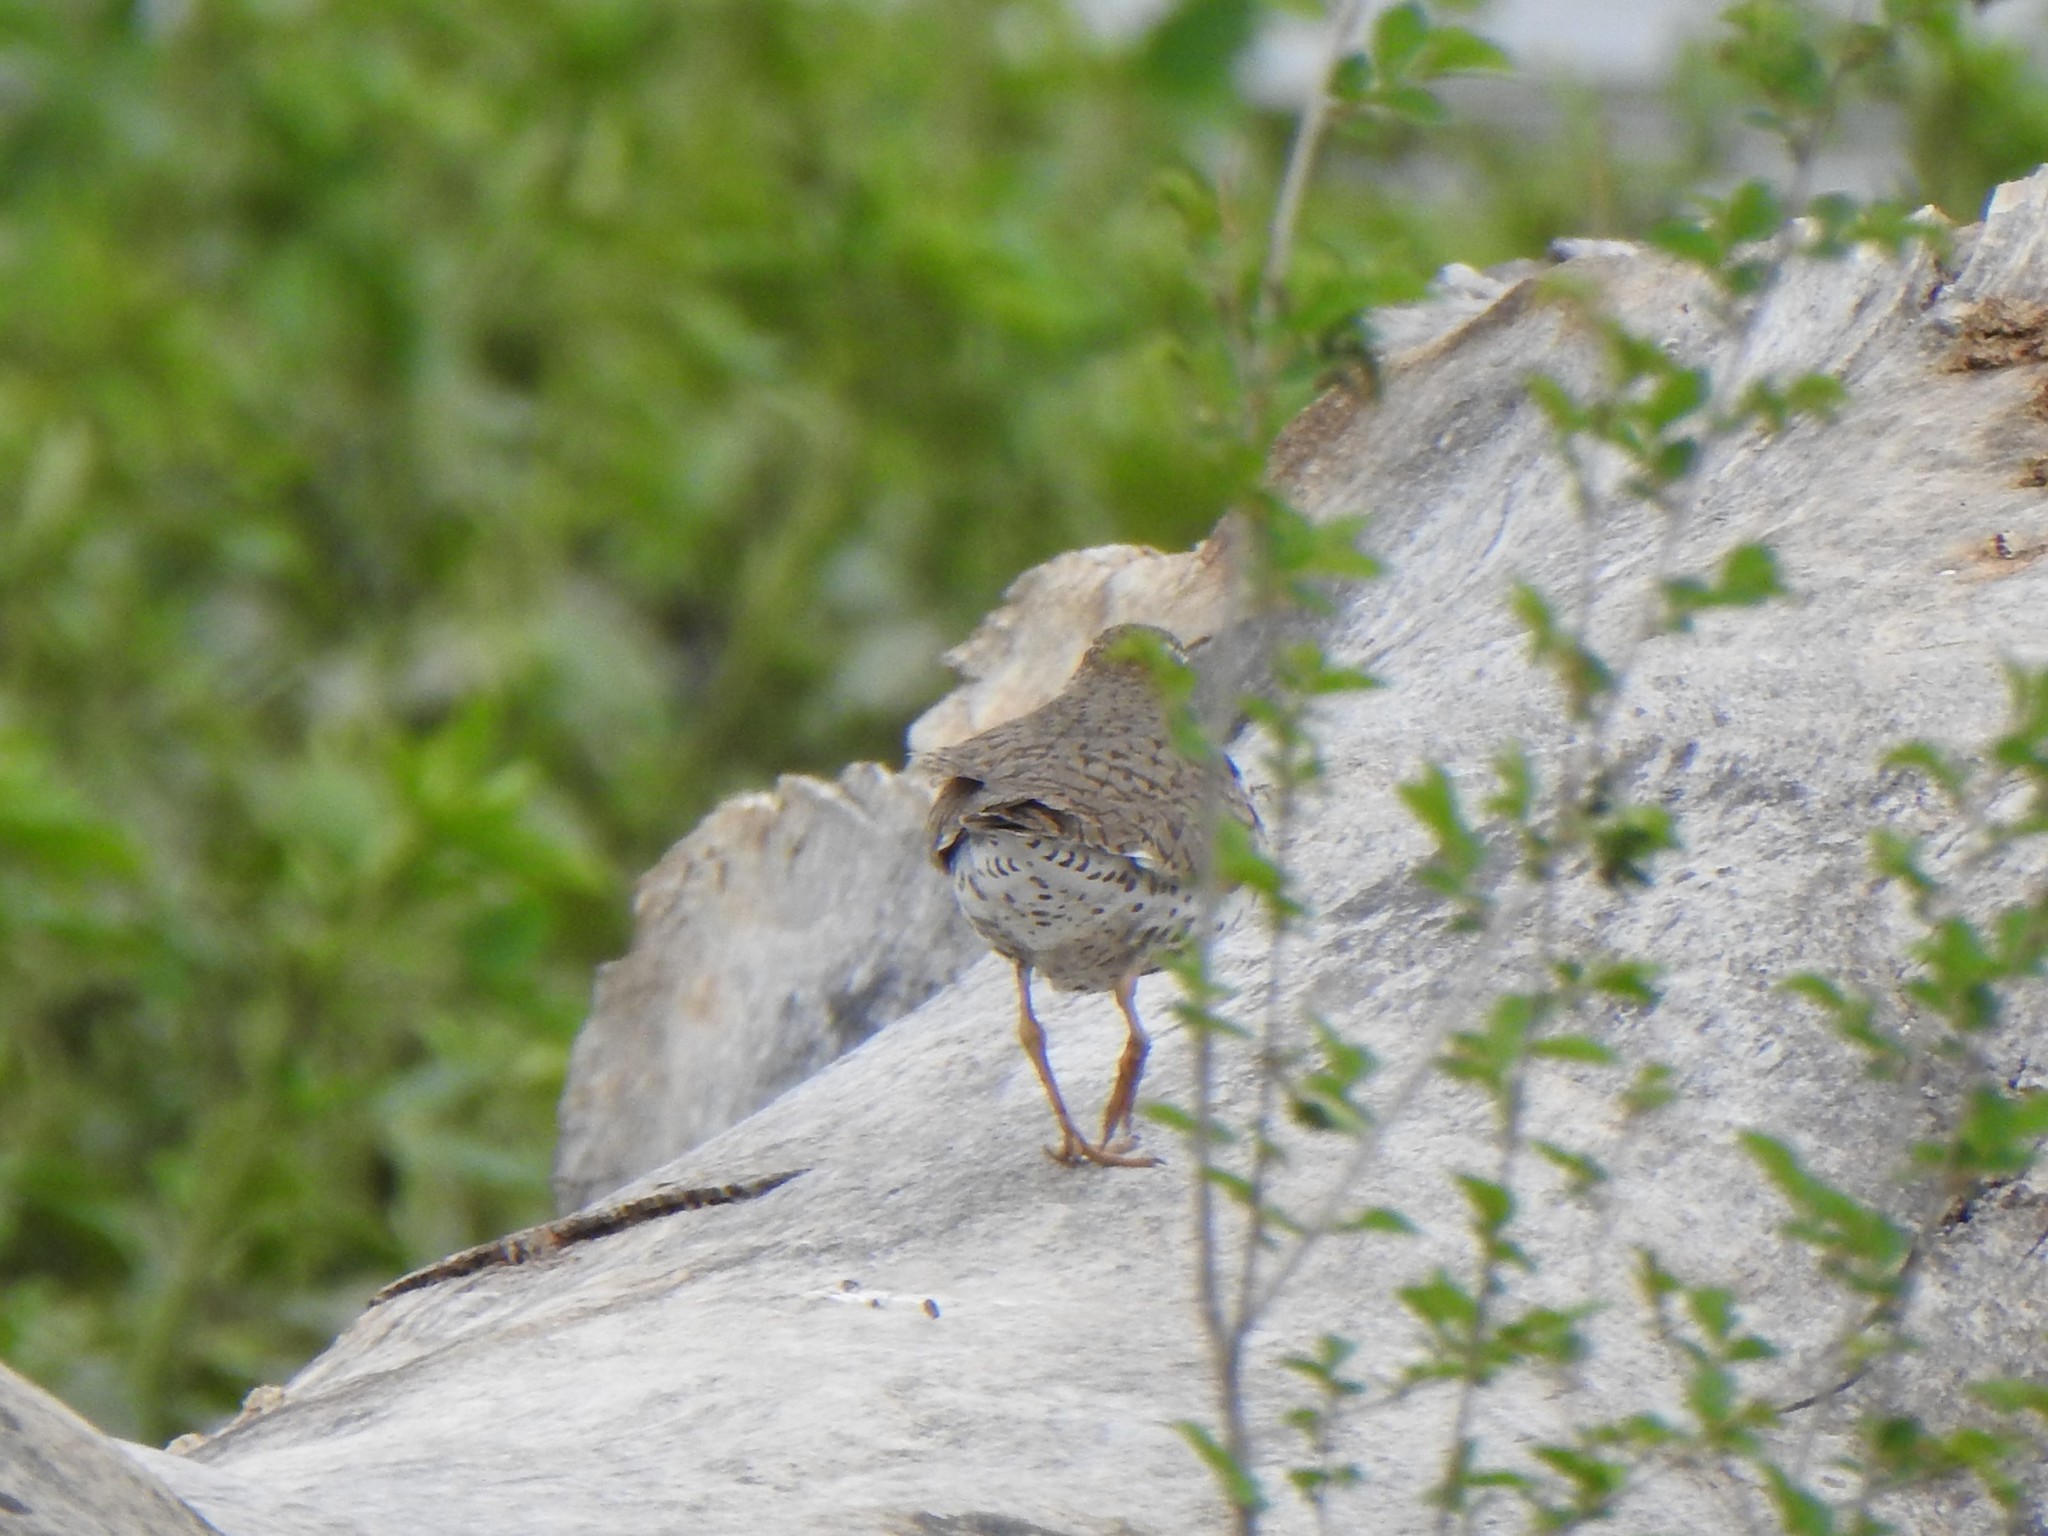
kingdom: Animalia
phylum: Chordata
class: Aves
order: Charadriiformes
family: Scolopacidae
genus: Actitis
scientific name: Actitis macularius
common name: Spotted sandpiper
